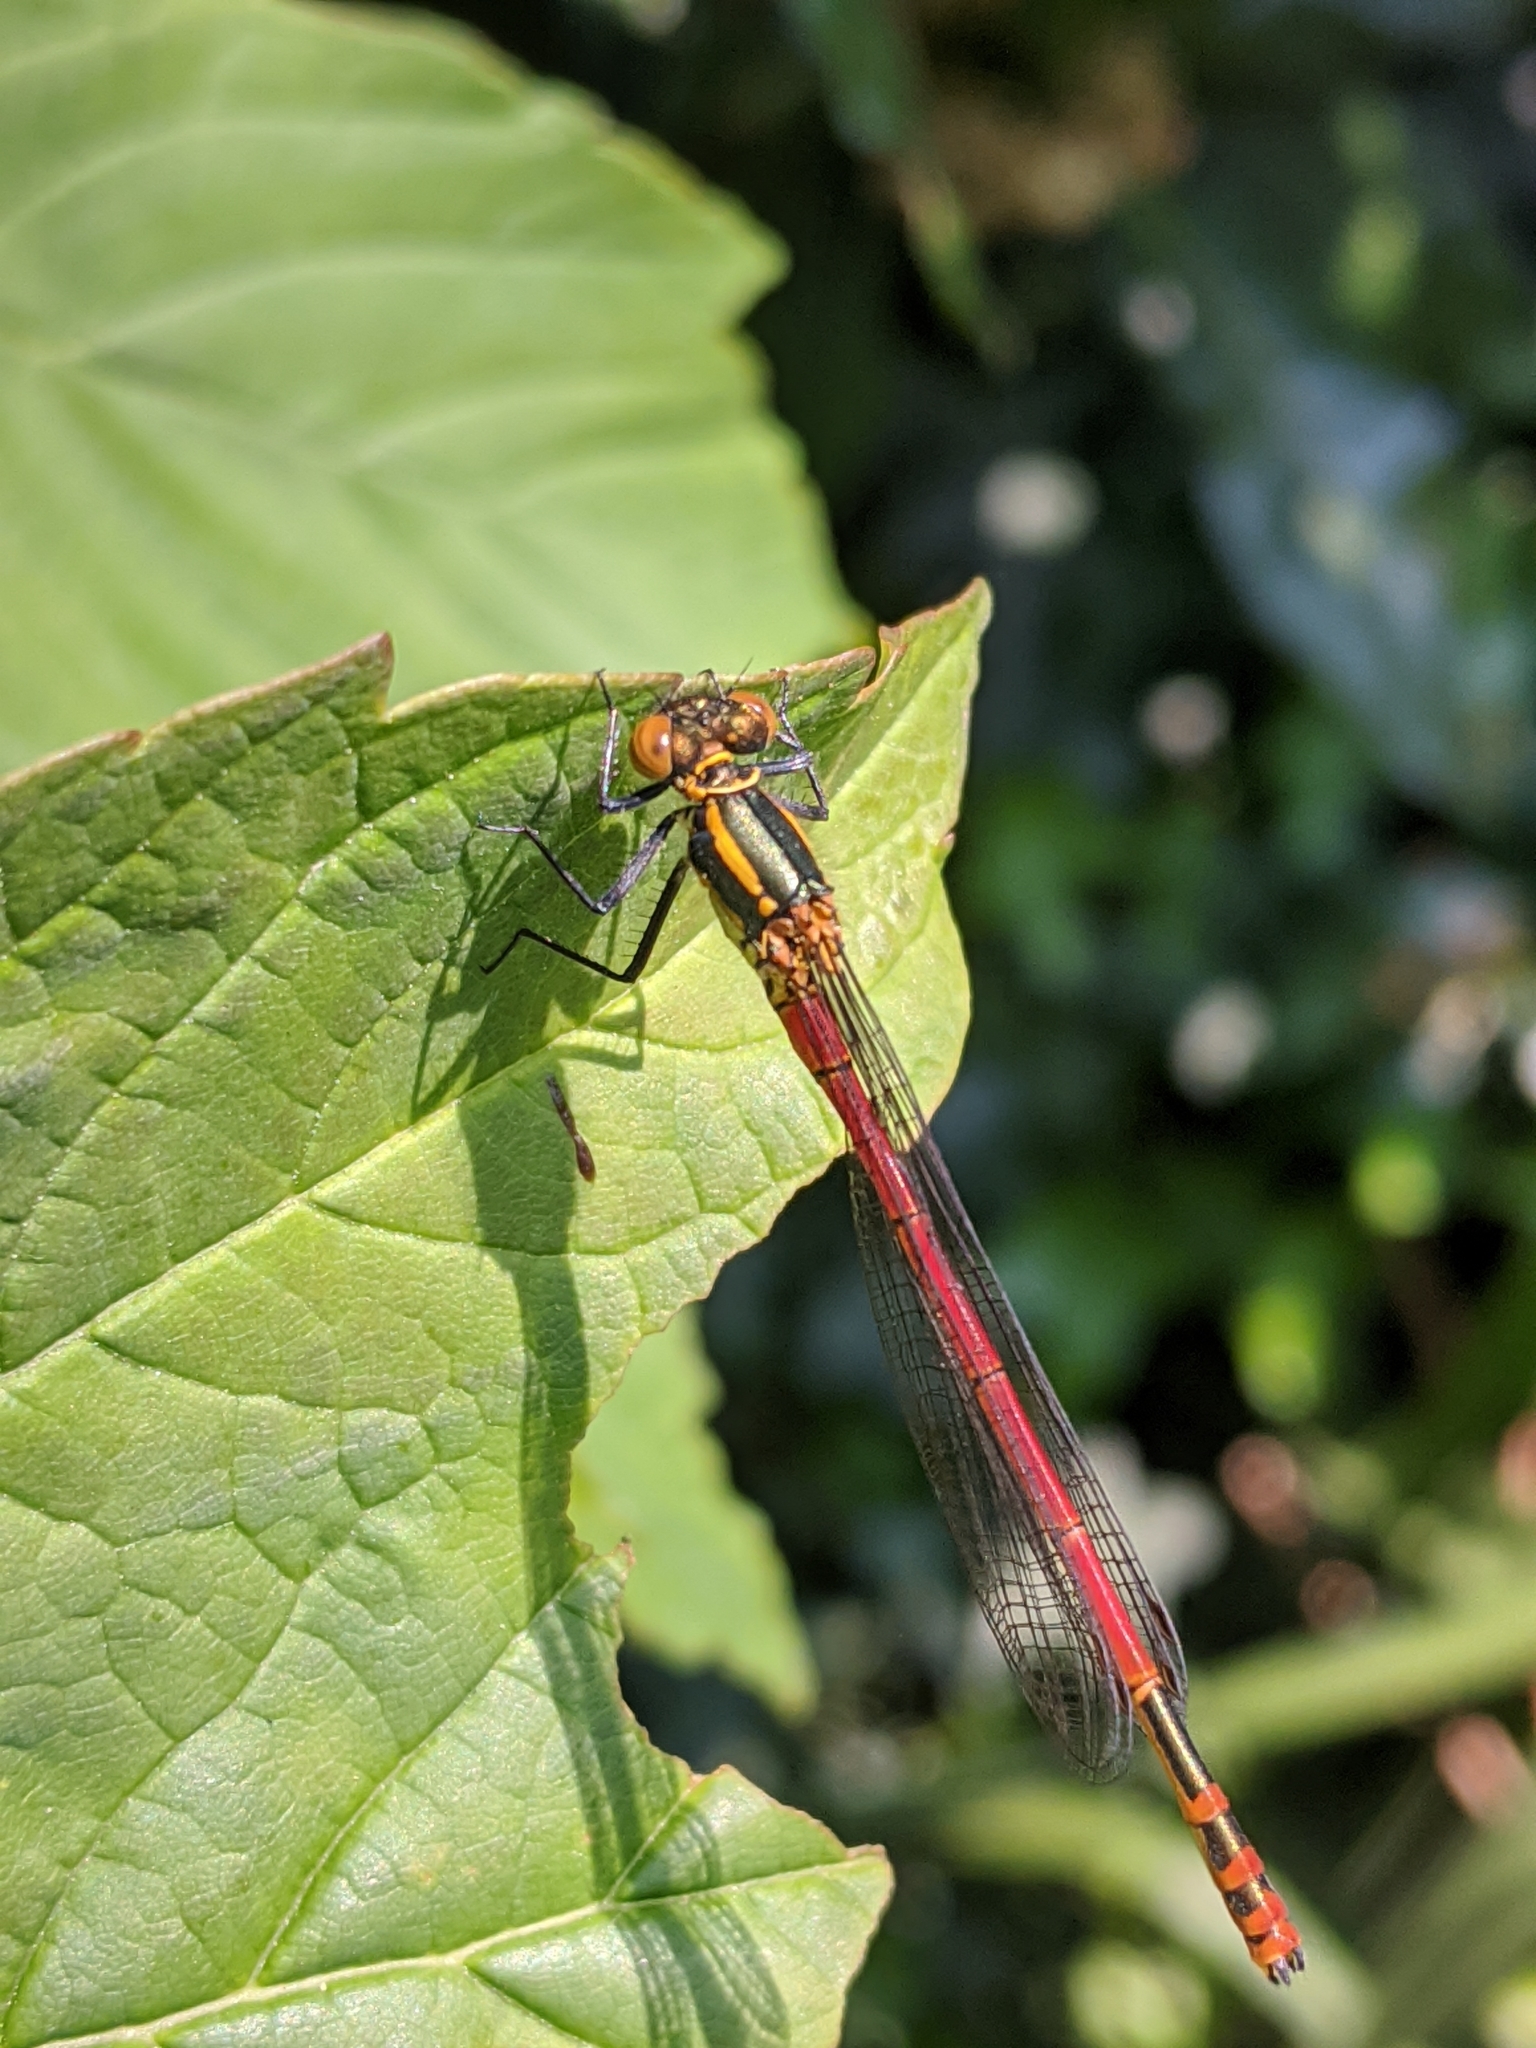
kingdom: Animalia
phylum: Arthropoda
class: Insecta
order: Odonata
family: Coenagrionidae
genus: Pyrrhosoma
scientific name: Pyrrhosoma nymphula
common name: Large red damsel
